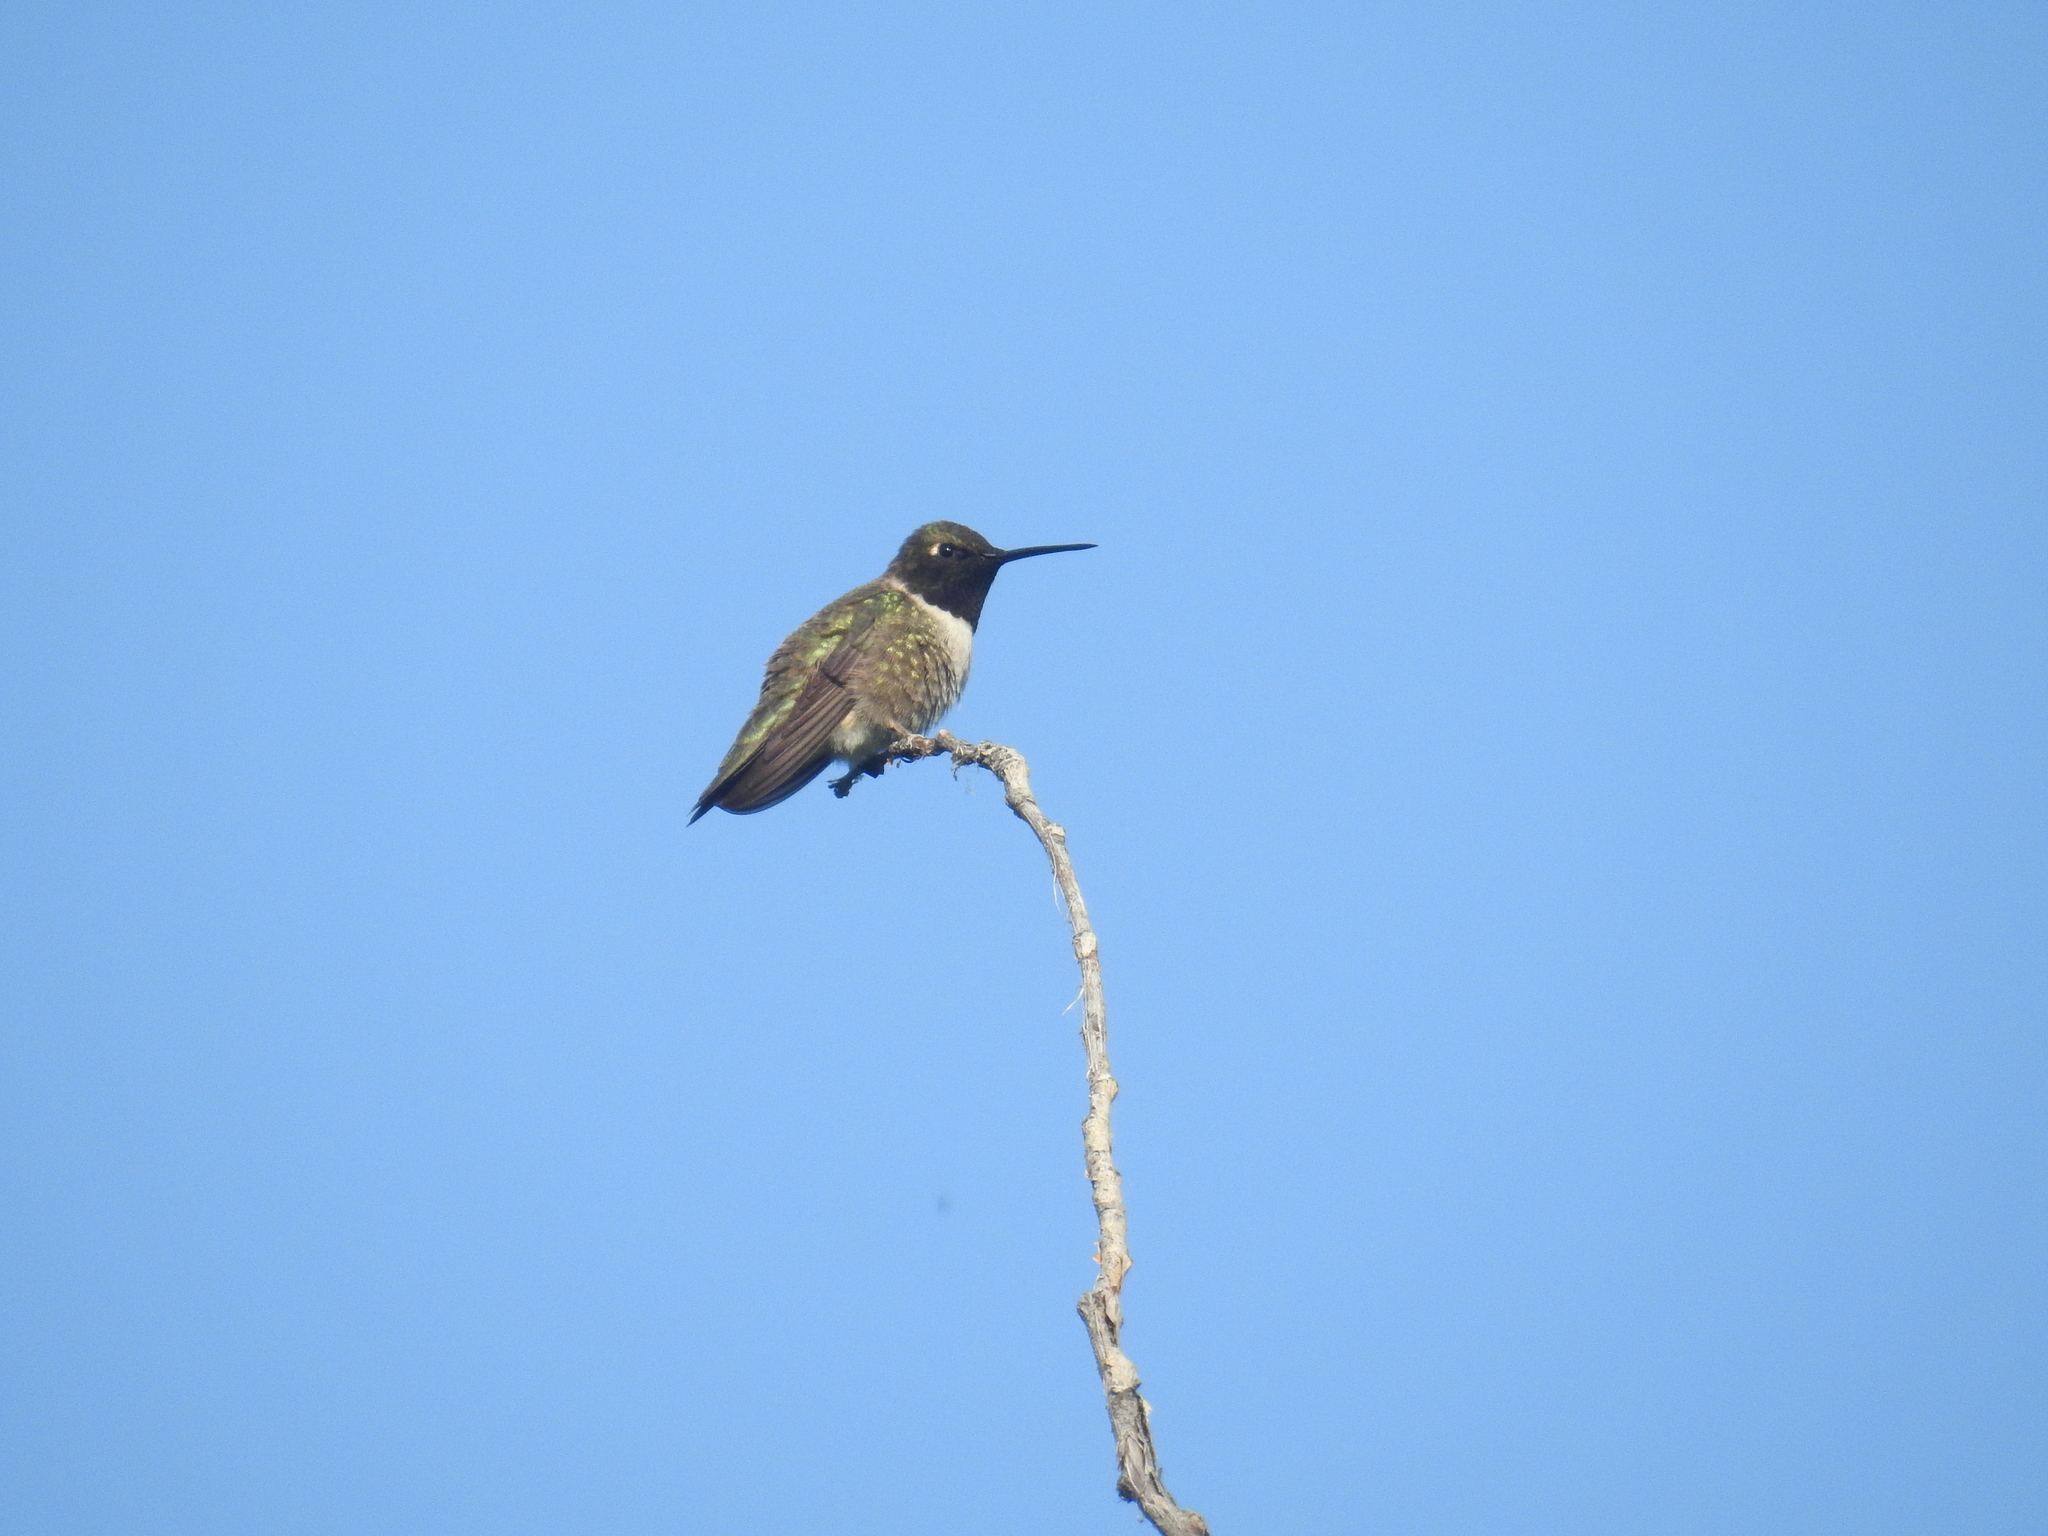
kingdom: Animalia
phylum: Chordata
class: Aves
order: Apodiformes
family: Trochilidae
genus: Archilochus
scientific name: Archilochus alexandri
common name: Black-chinned hummingbird
